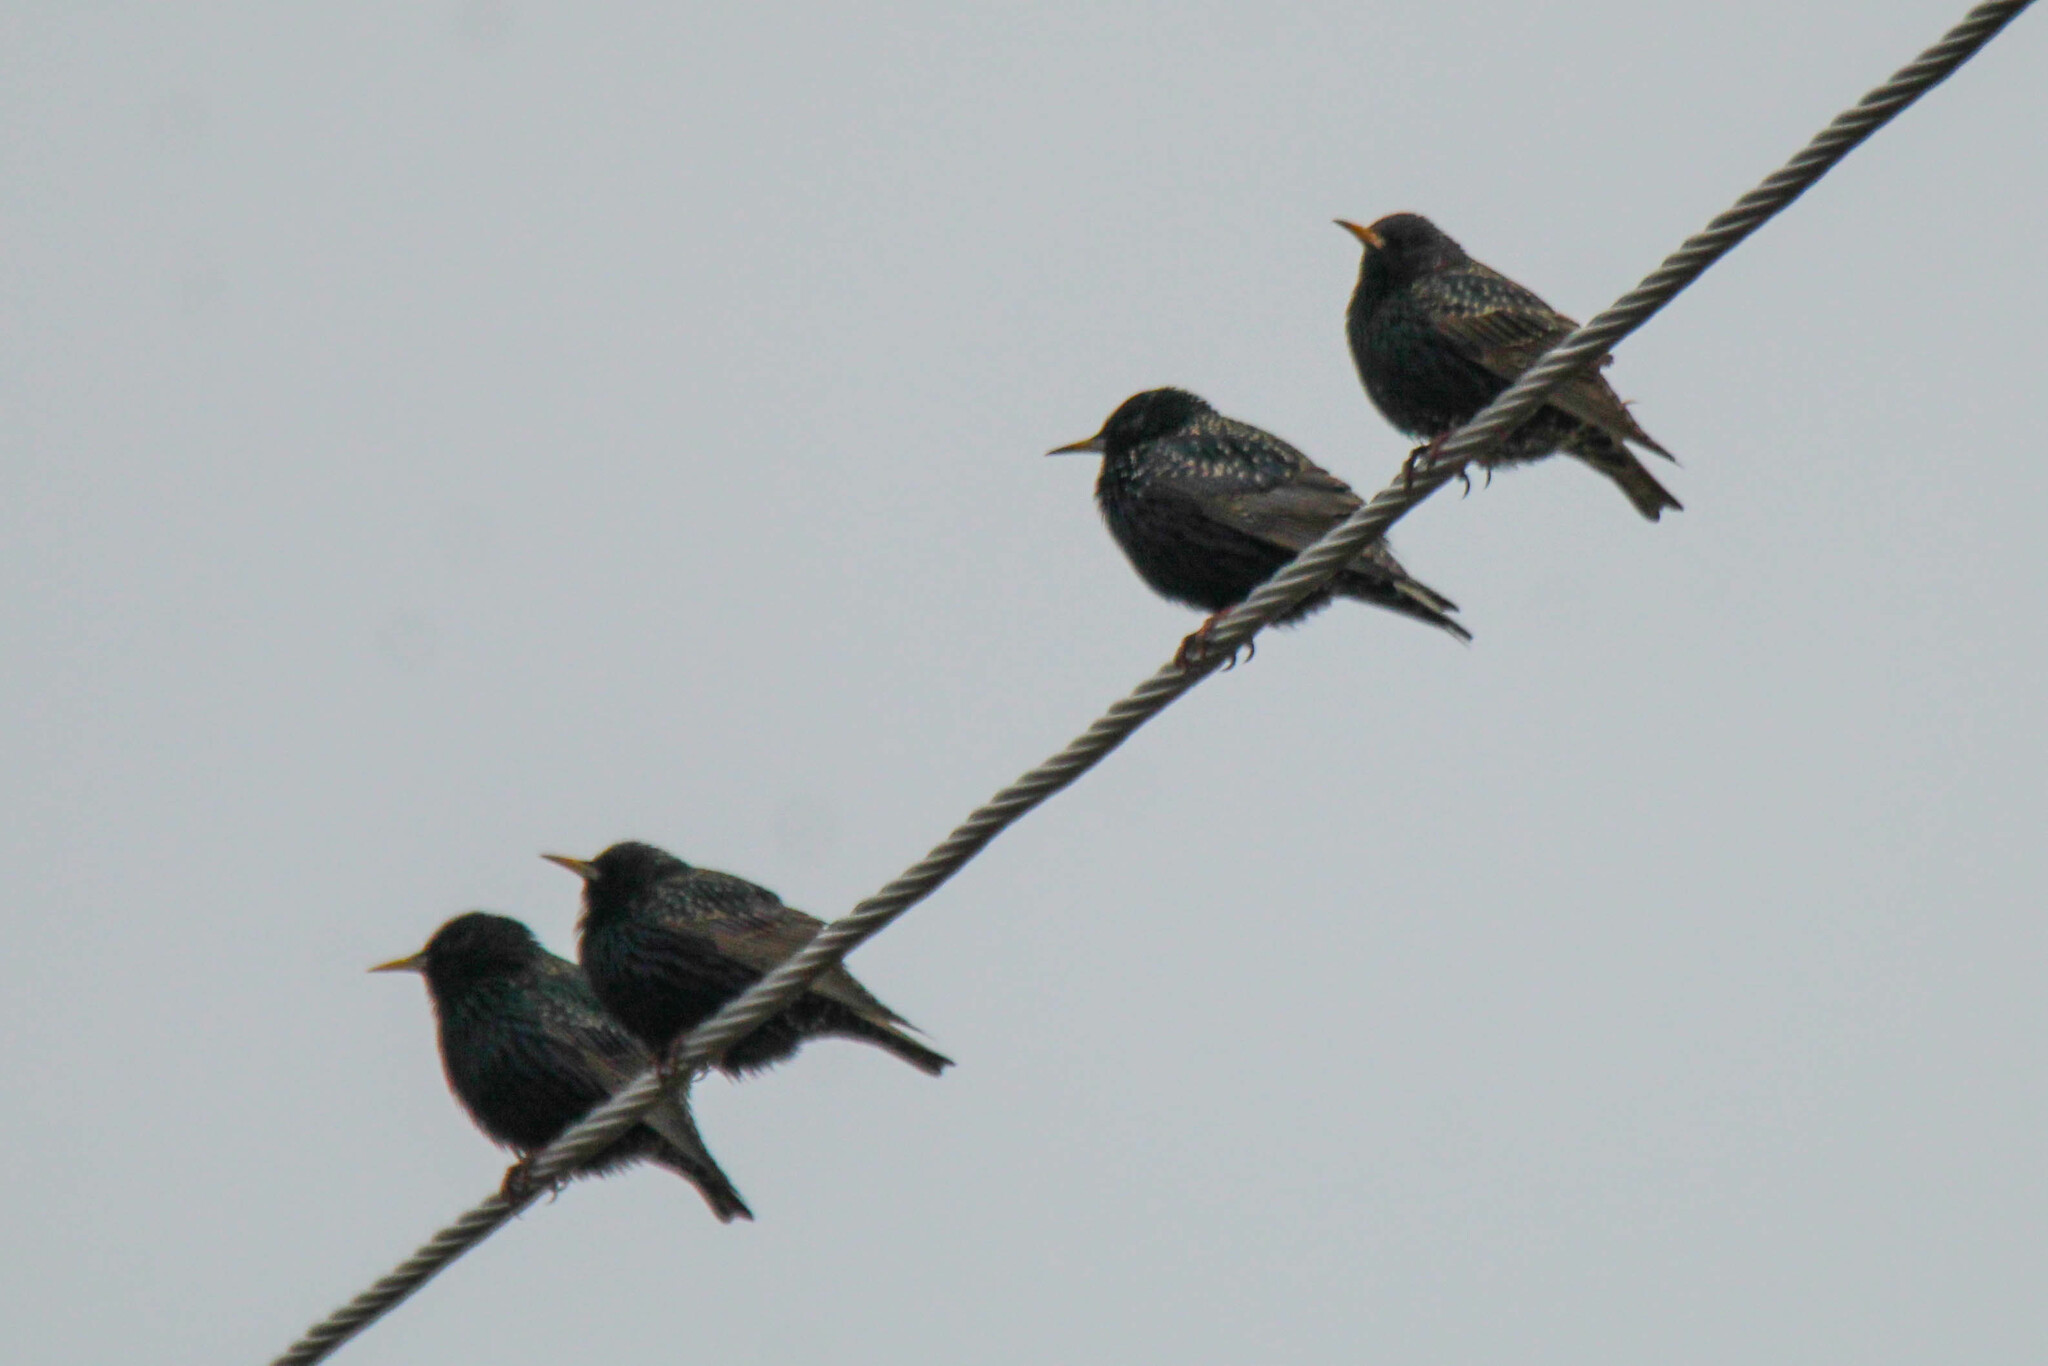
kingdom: Animalia
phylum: Chordata
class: Aves
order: Passeriformes
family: Sturnidae
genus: Sturnus
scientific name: Sturnus vulgaris
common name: Common starling
